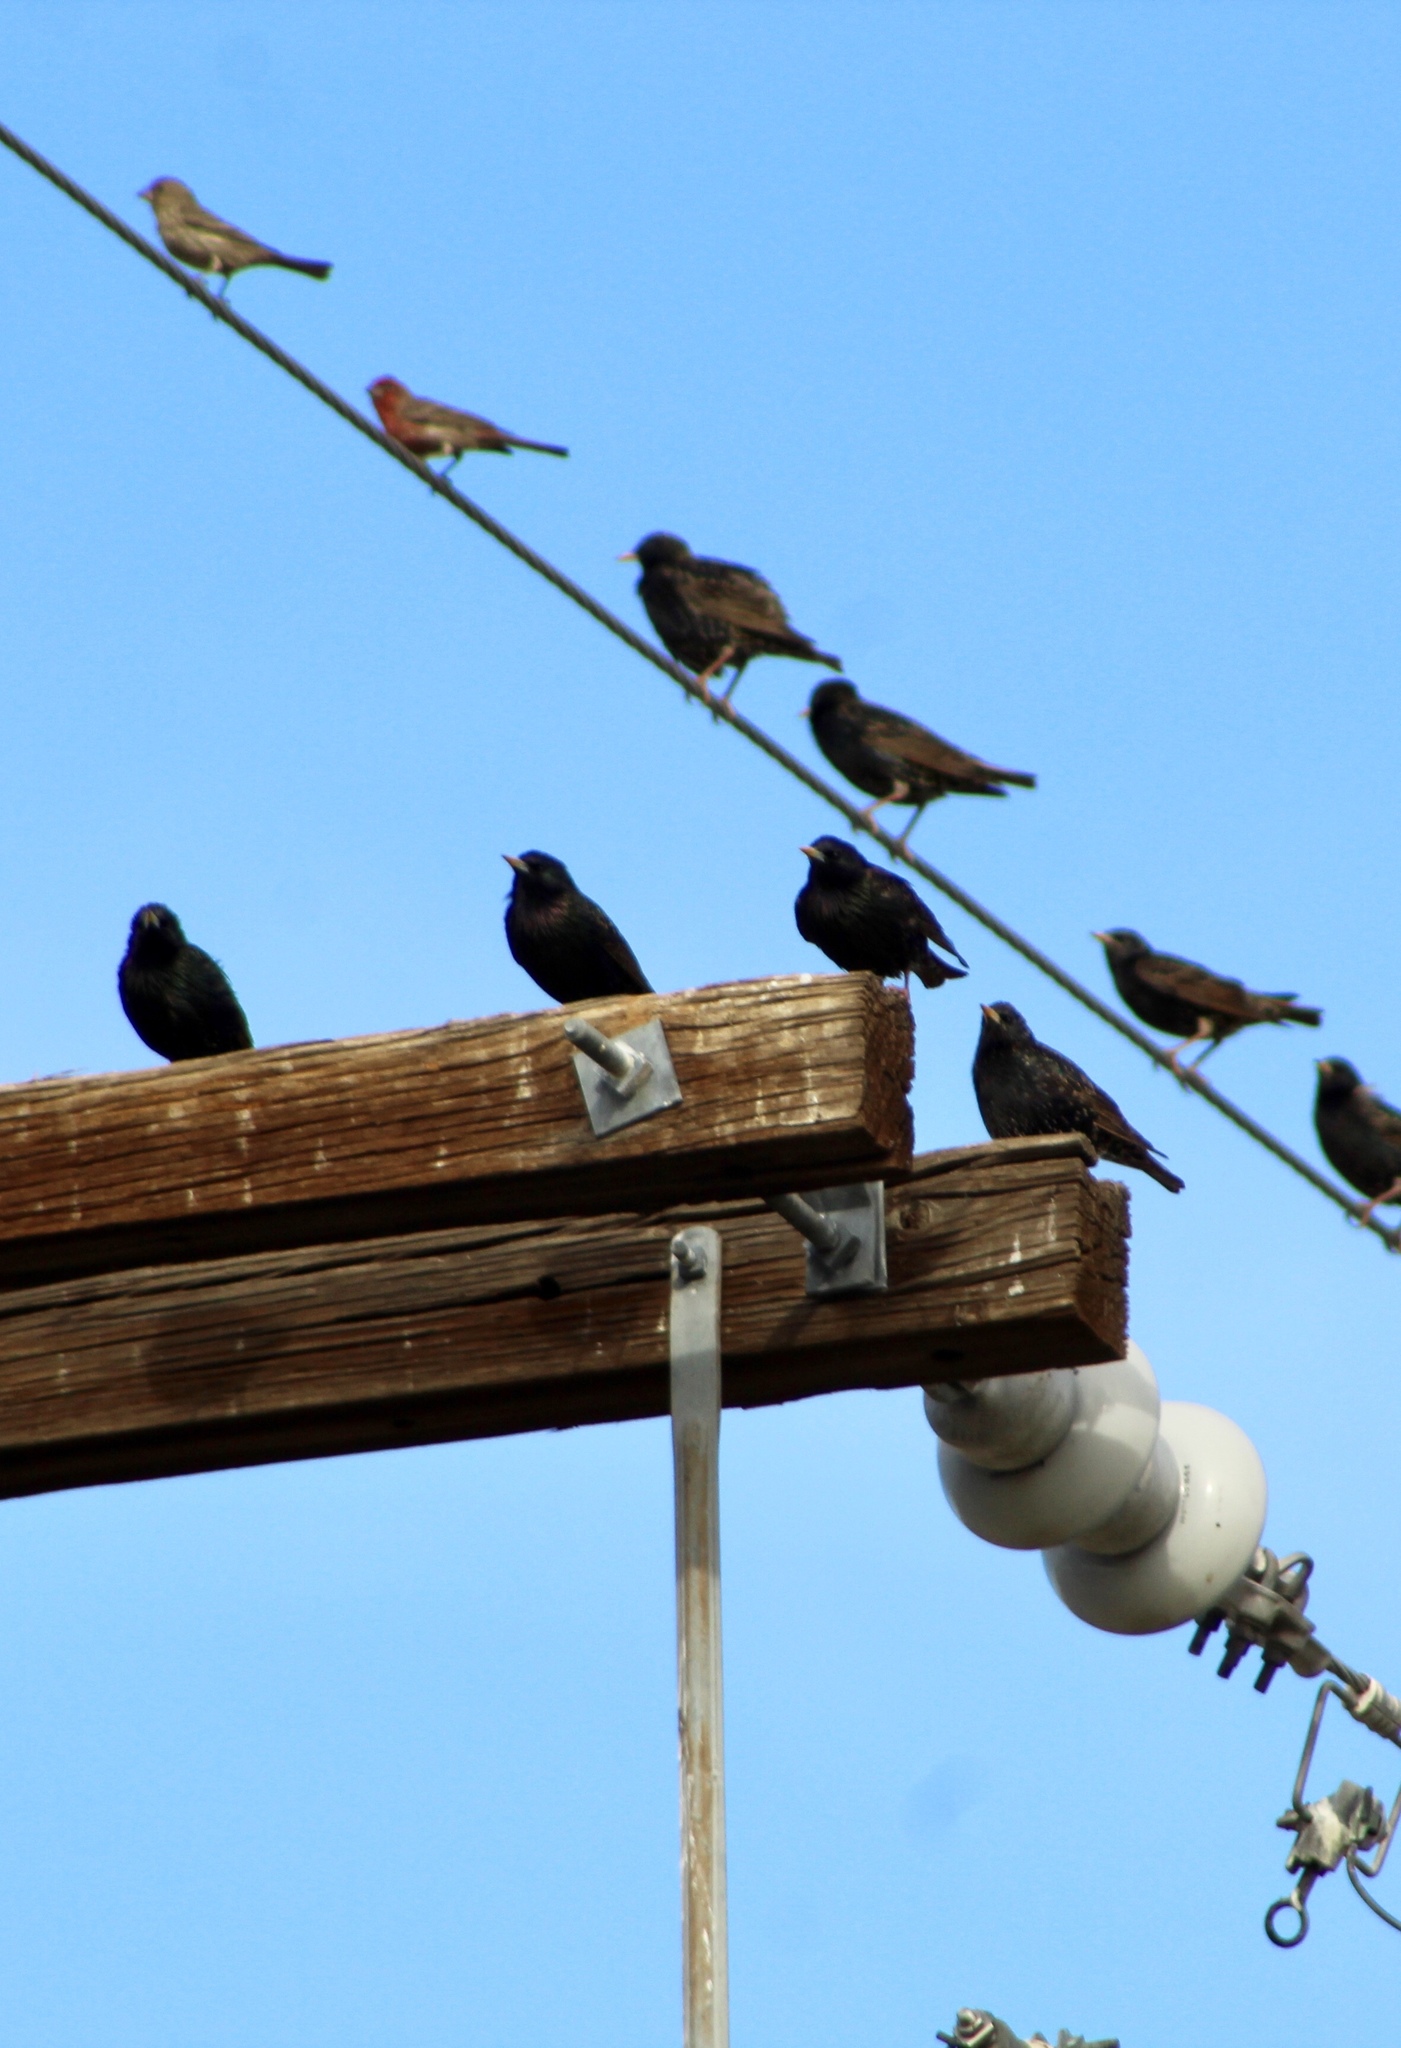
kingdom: Animalia
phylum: Chordata
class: Aves
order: Passeriformes
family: Sturnidae
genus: Sturnus
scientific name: Sturnus vulgaris
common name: Common starling
